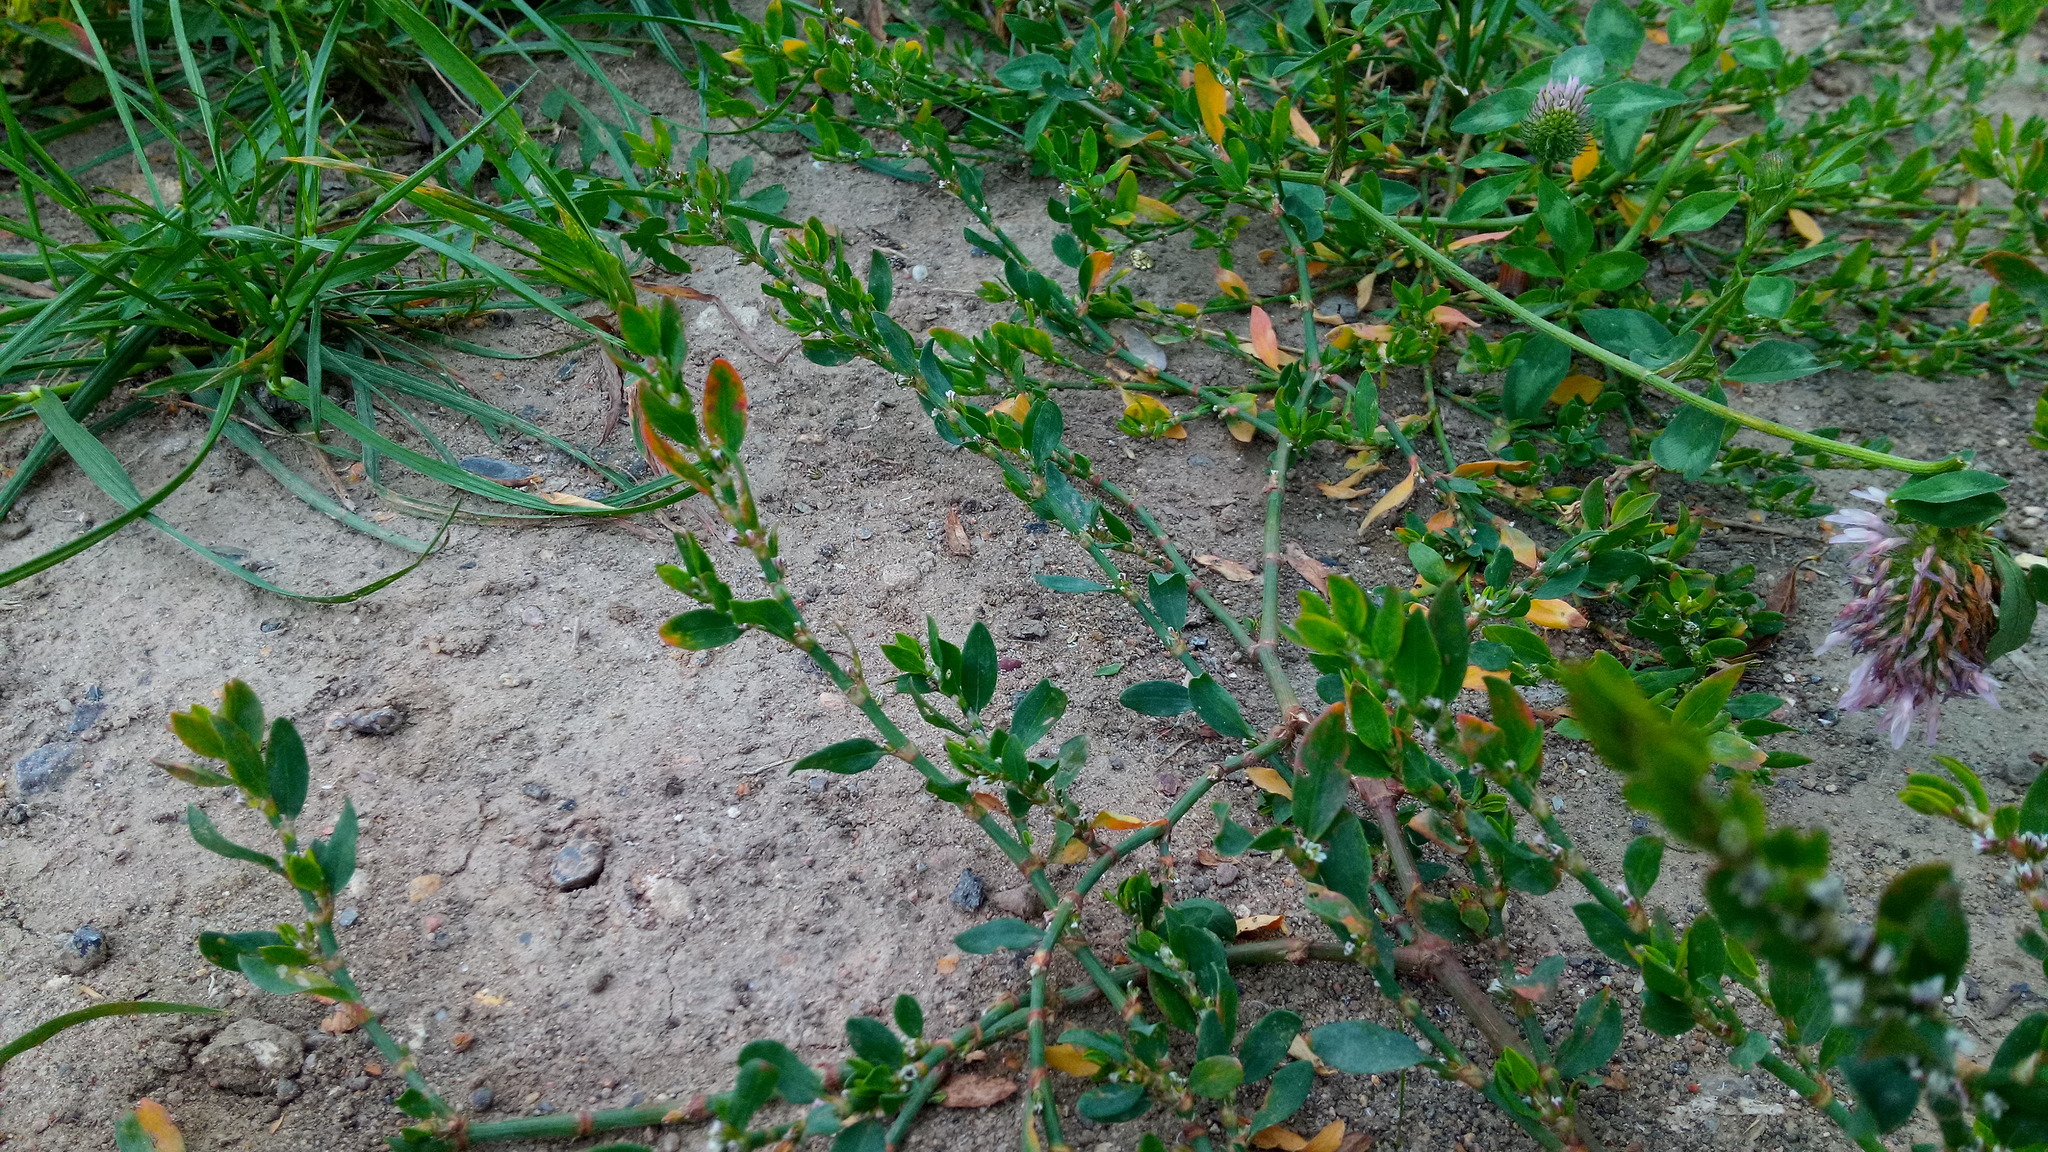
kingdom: Plantae
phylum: Tracheophyta
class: Magnoliopsida
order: Caryophyllales
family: Polygonaceae
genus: Polygonum
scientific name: Polygonum
